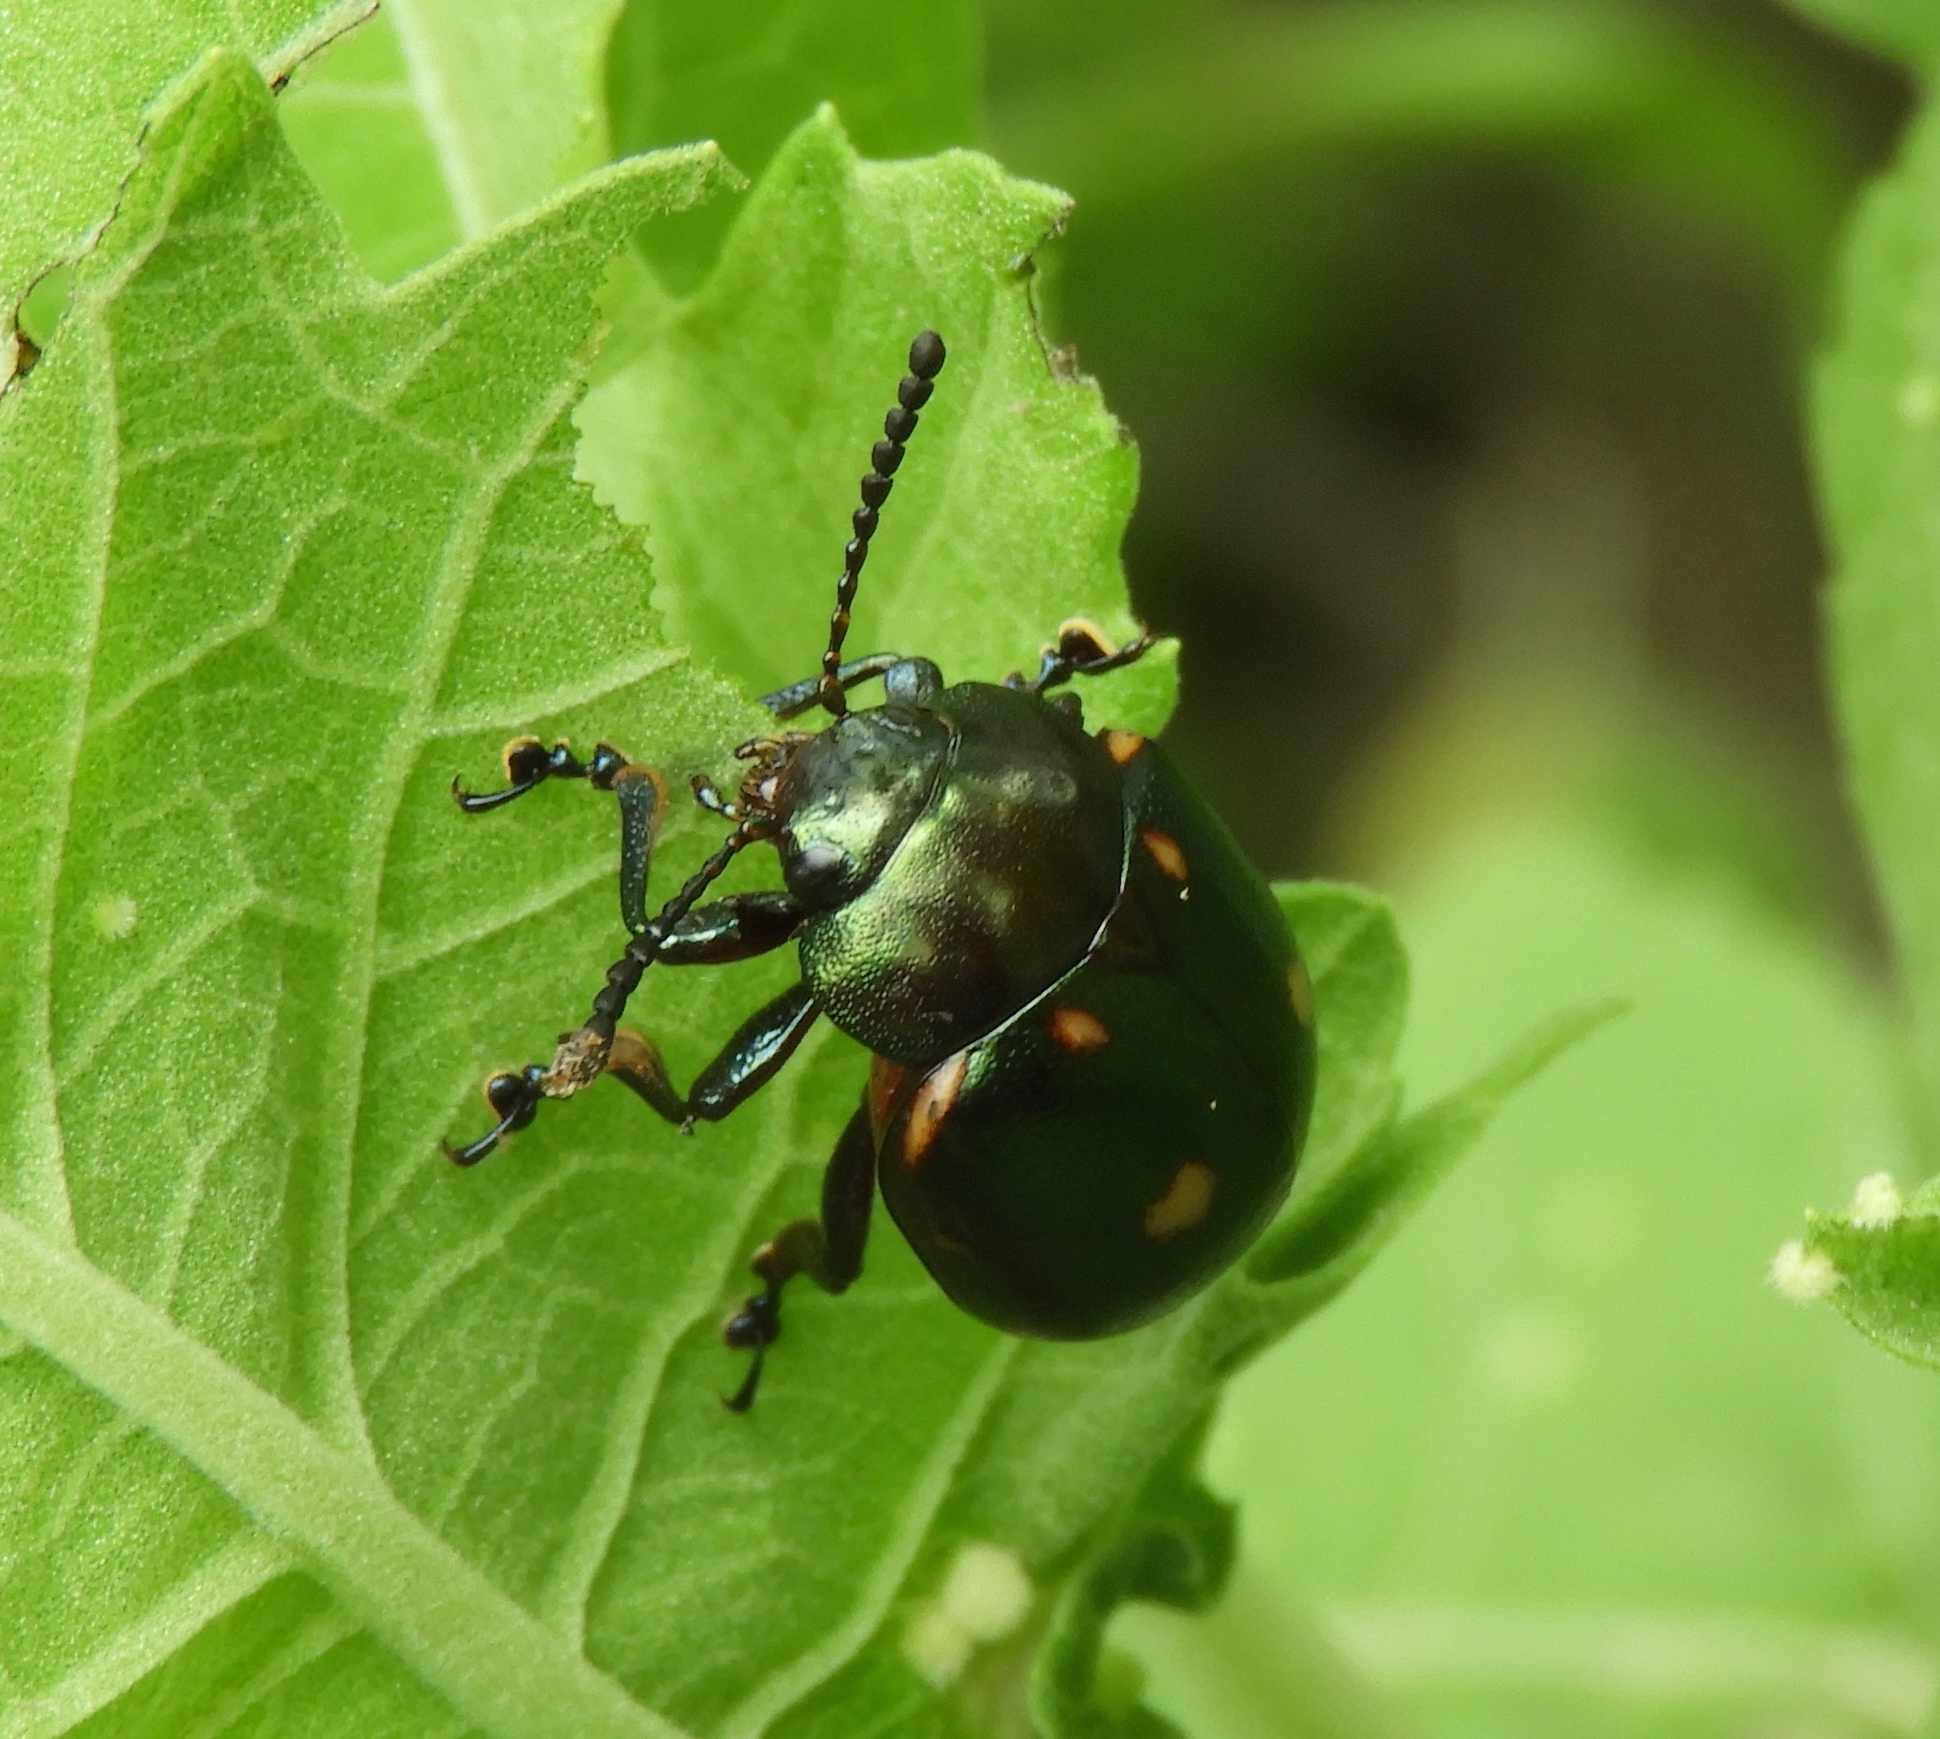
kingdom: Animalia
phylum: Arthropoda
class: Insecta
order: Coleoptera
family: Chrysomelidae
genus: Leptinotarsa
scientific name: Leptinotarsa behrensi
